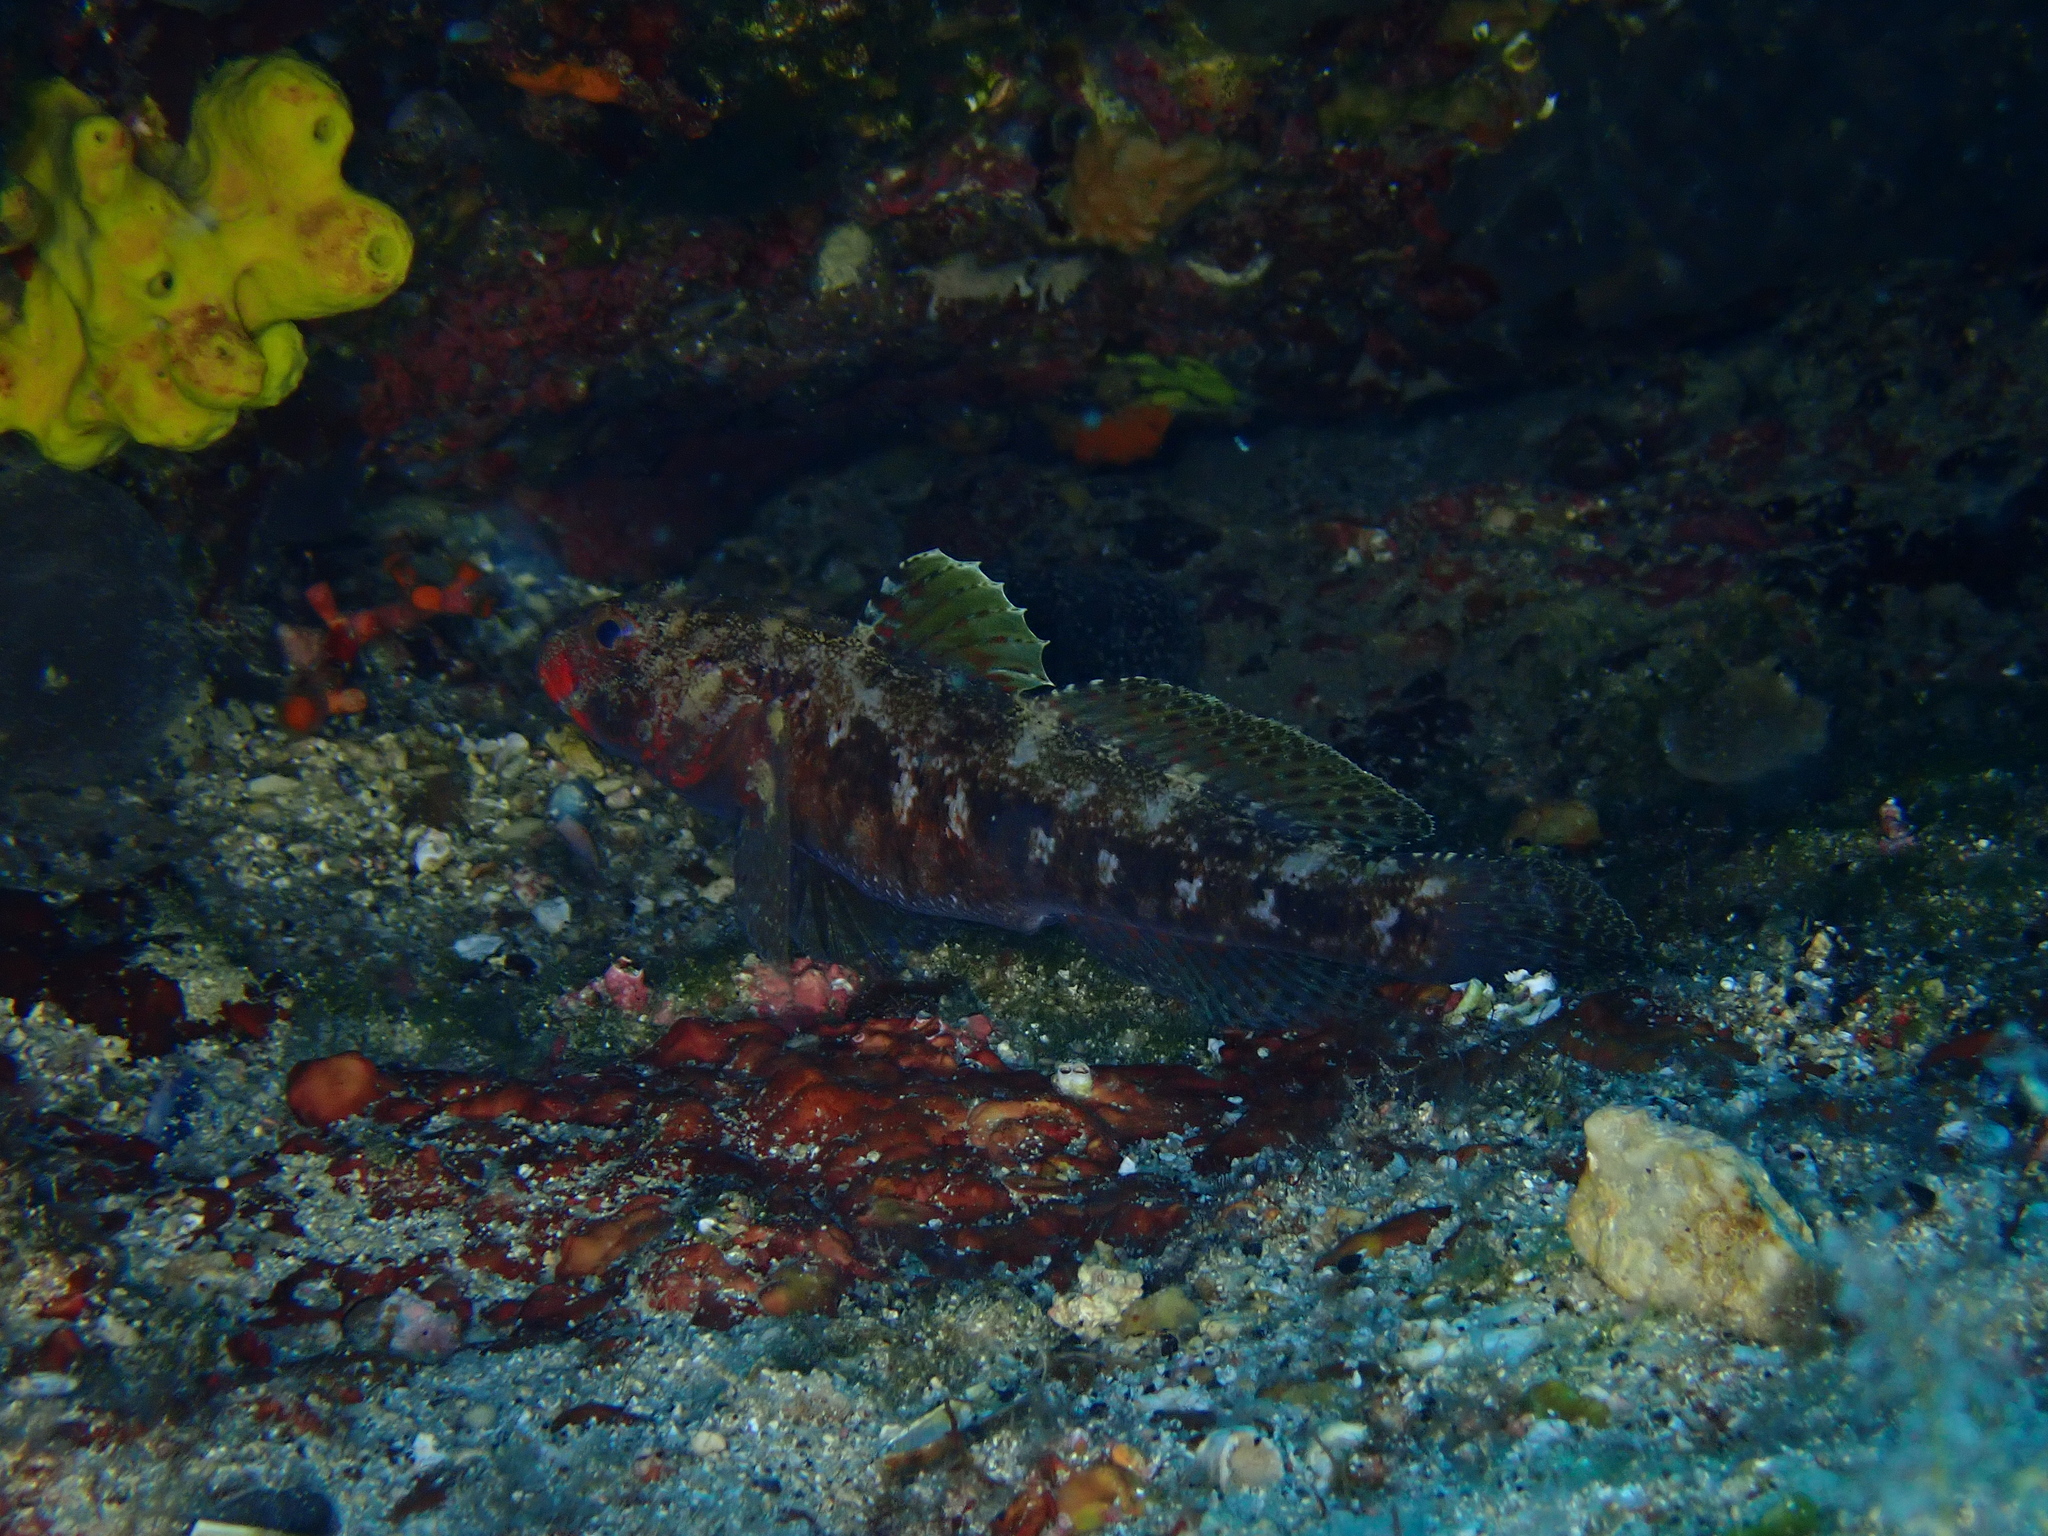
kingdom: Animalia
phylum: Chordata
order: Perciformes
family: Gobiidae
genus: Gobius
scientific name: Gobius cruentatus
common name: Red-mouthed goby
